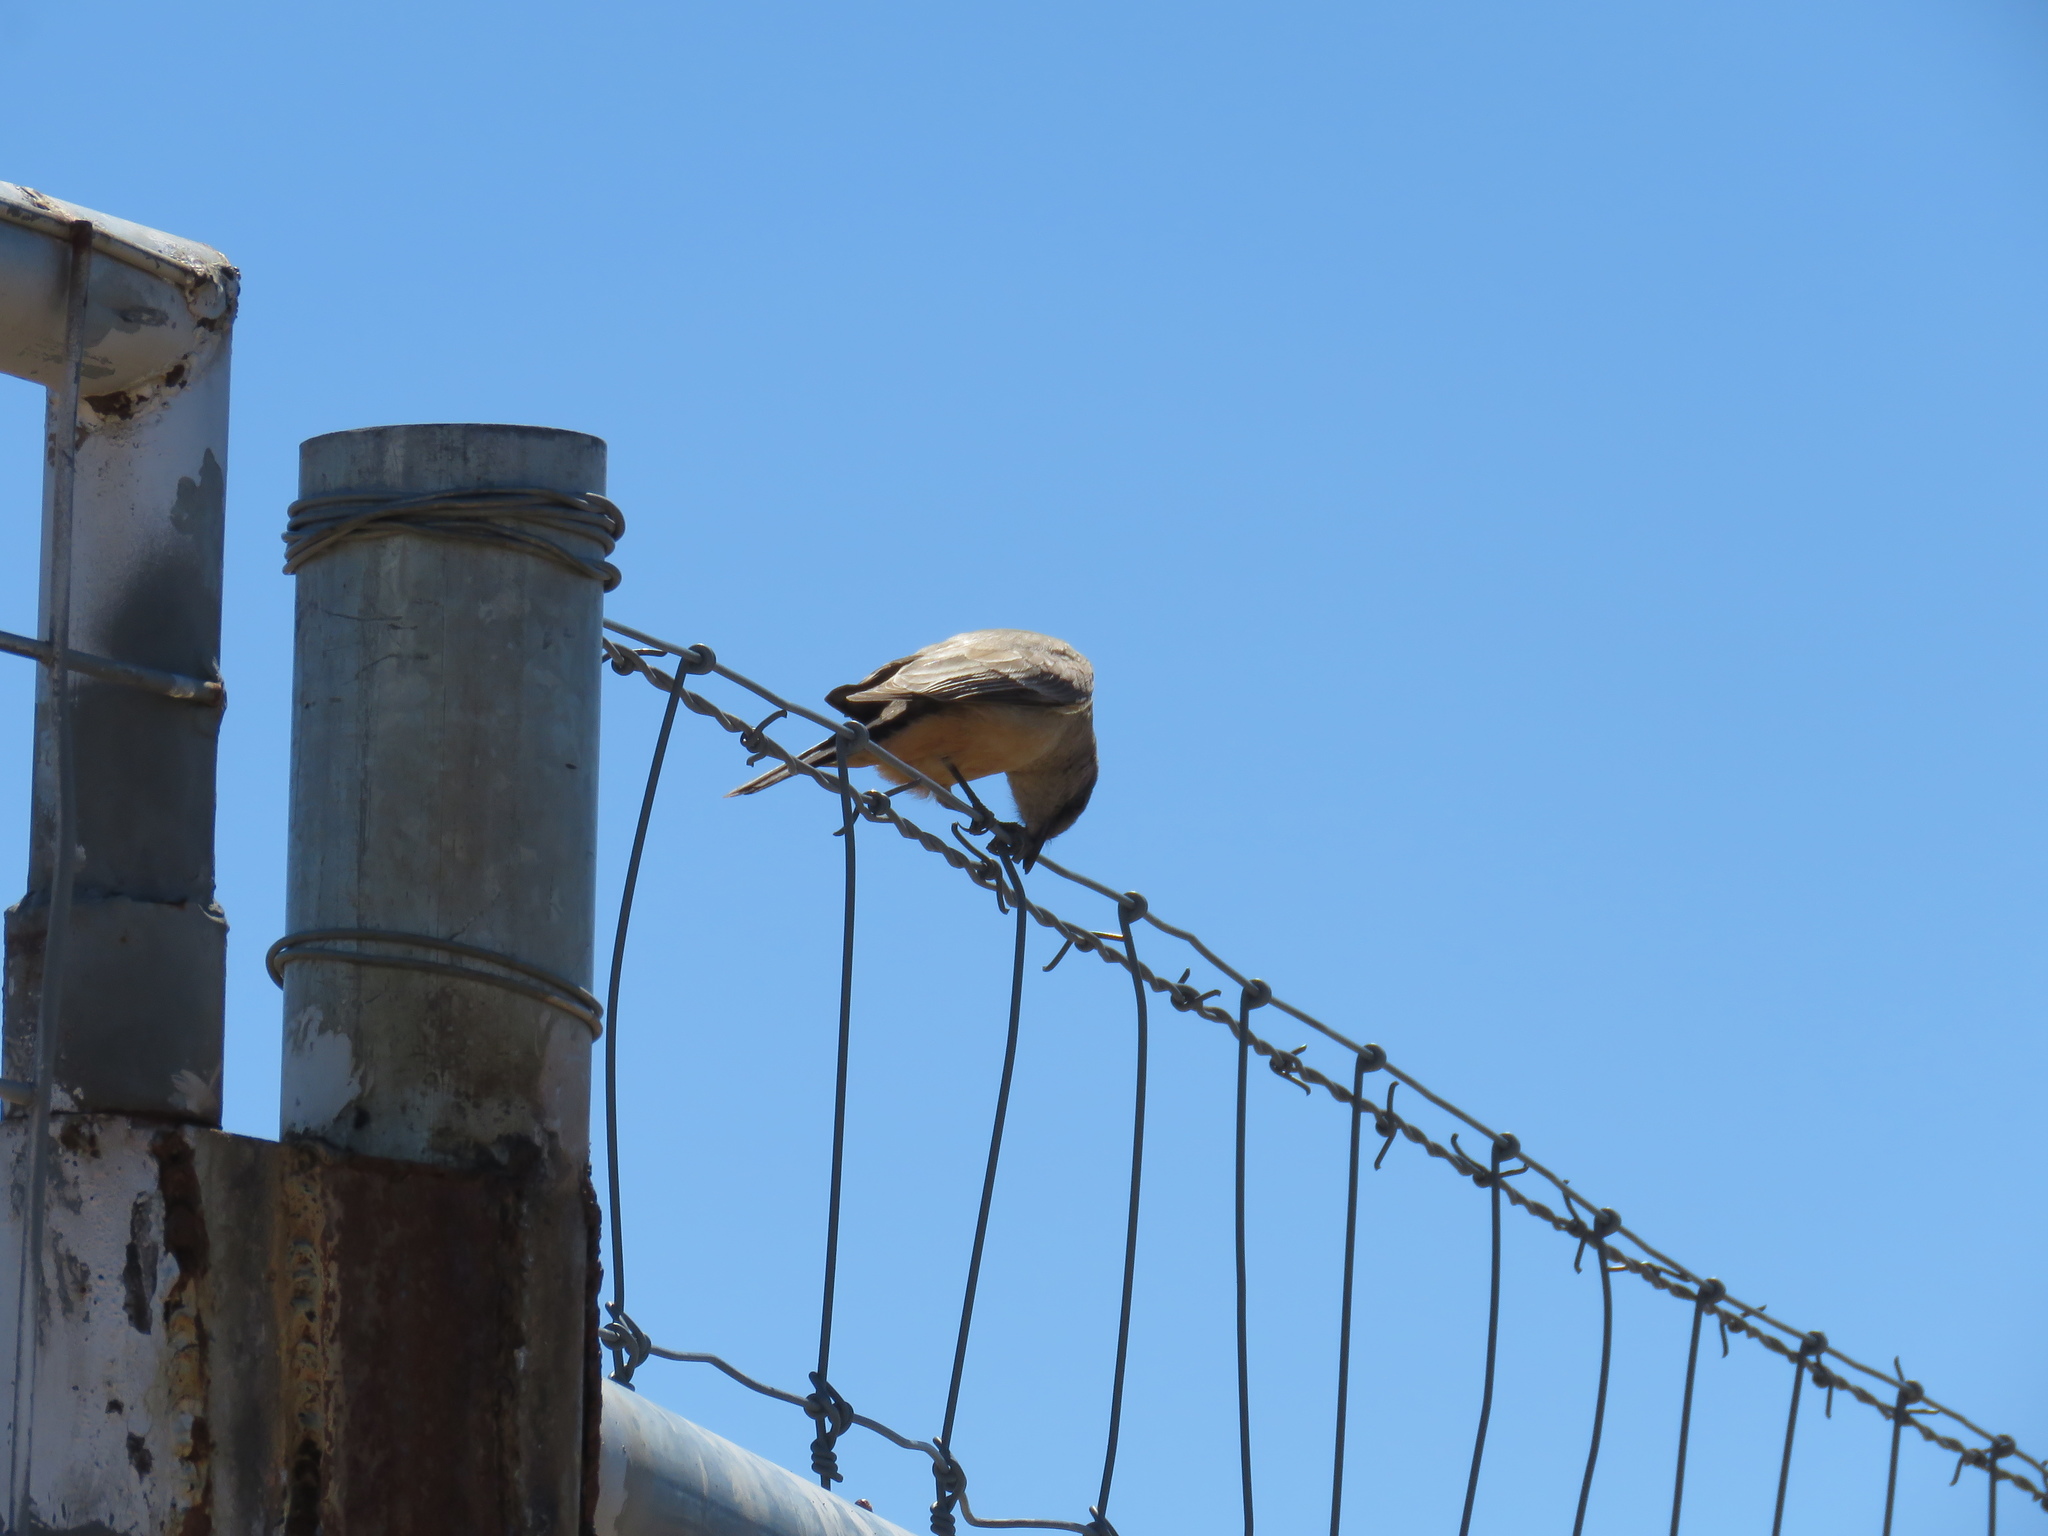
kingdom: Animalia
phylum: Chordata
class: Aves
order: Passeriformes
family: Tyrannidae
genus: Sayornis
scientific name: Sayornis saya
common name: Say's phoebe
